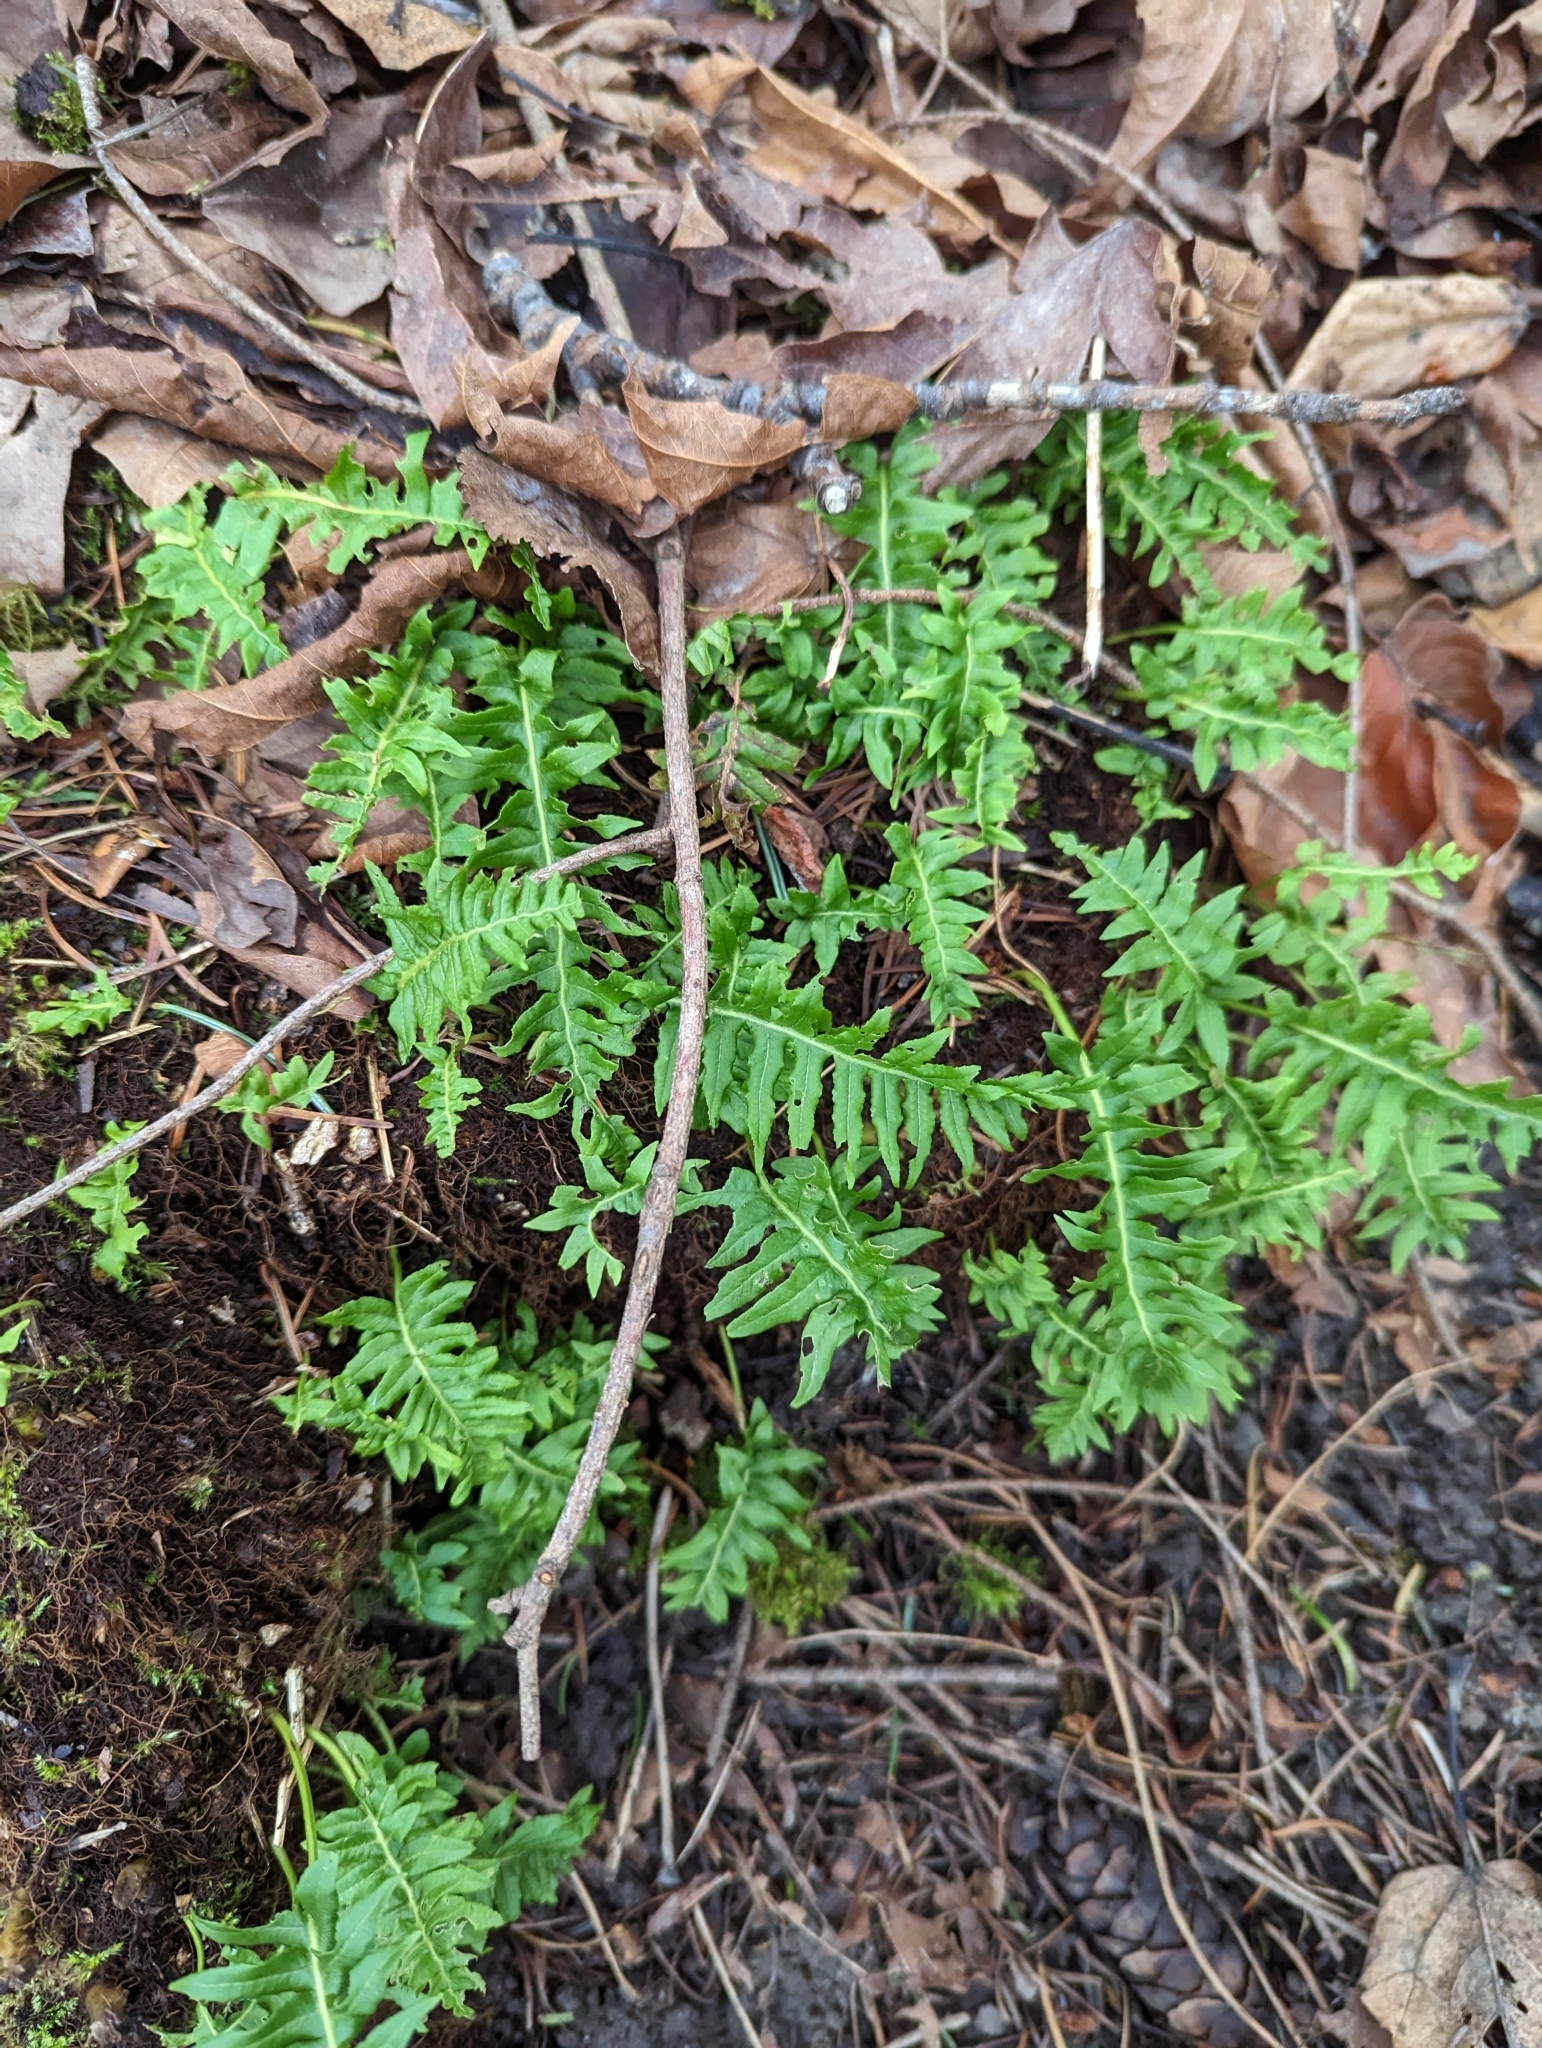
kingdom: Plantae
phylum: Tracheophyta
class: Polypodiopsida
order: Polypodiales
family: Polypodiaceae
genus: Polypodium
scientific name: Polypodium glycyrrhiza
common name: Licorice fern
